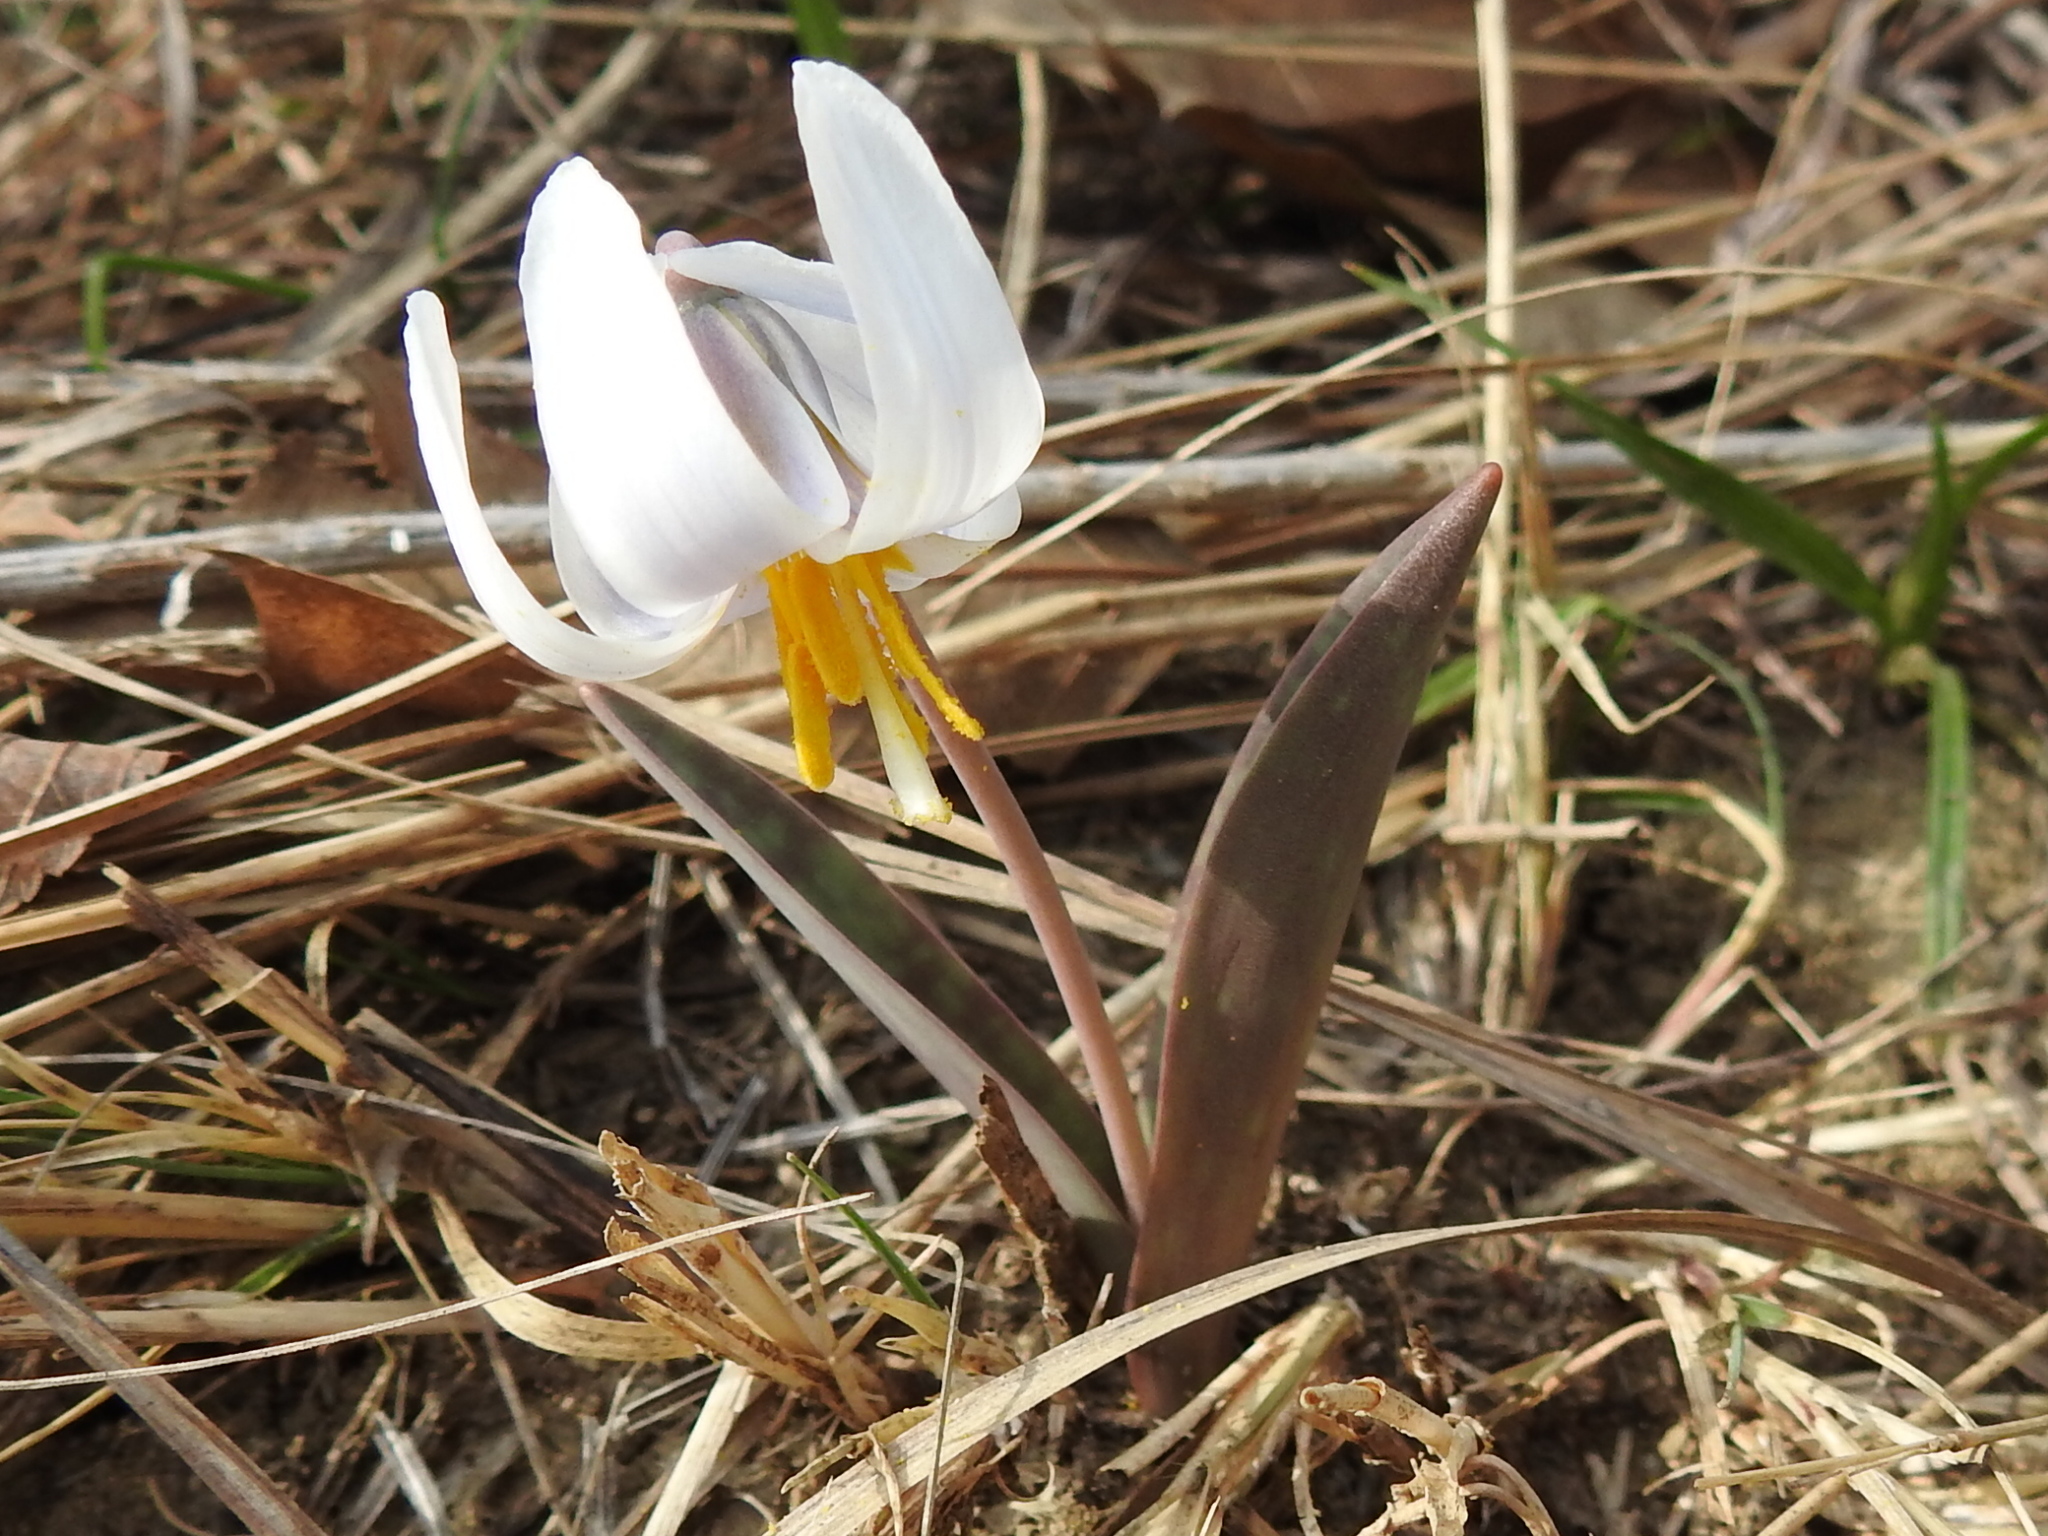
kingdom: Plantae
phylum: Tracheophyta
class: Liliopsida
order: Liliales
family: Liliaceae
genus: Erythronium
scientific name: Erythronium albidum
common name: White trout-lily
